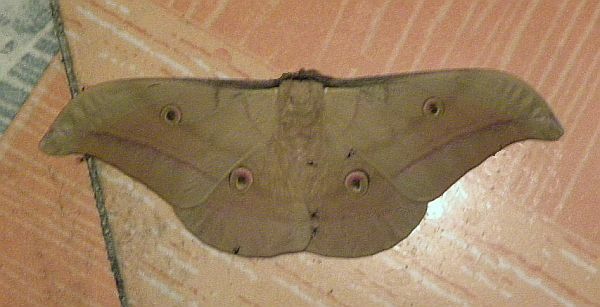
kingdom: Animalia
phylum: Arthropoda
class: Insecta
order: Lepidoptera
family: Saturniidae
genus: Antheraea
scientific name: Antheraea roylii
